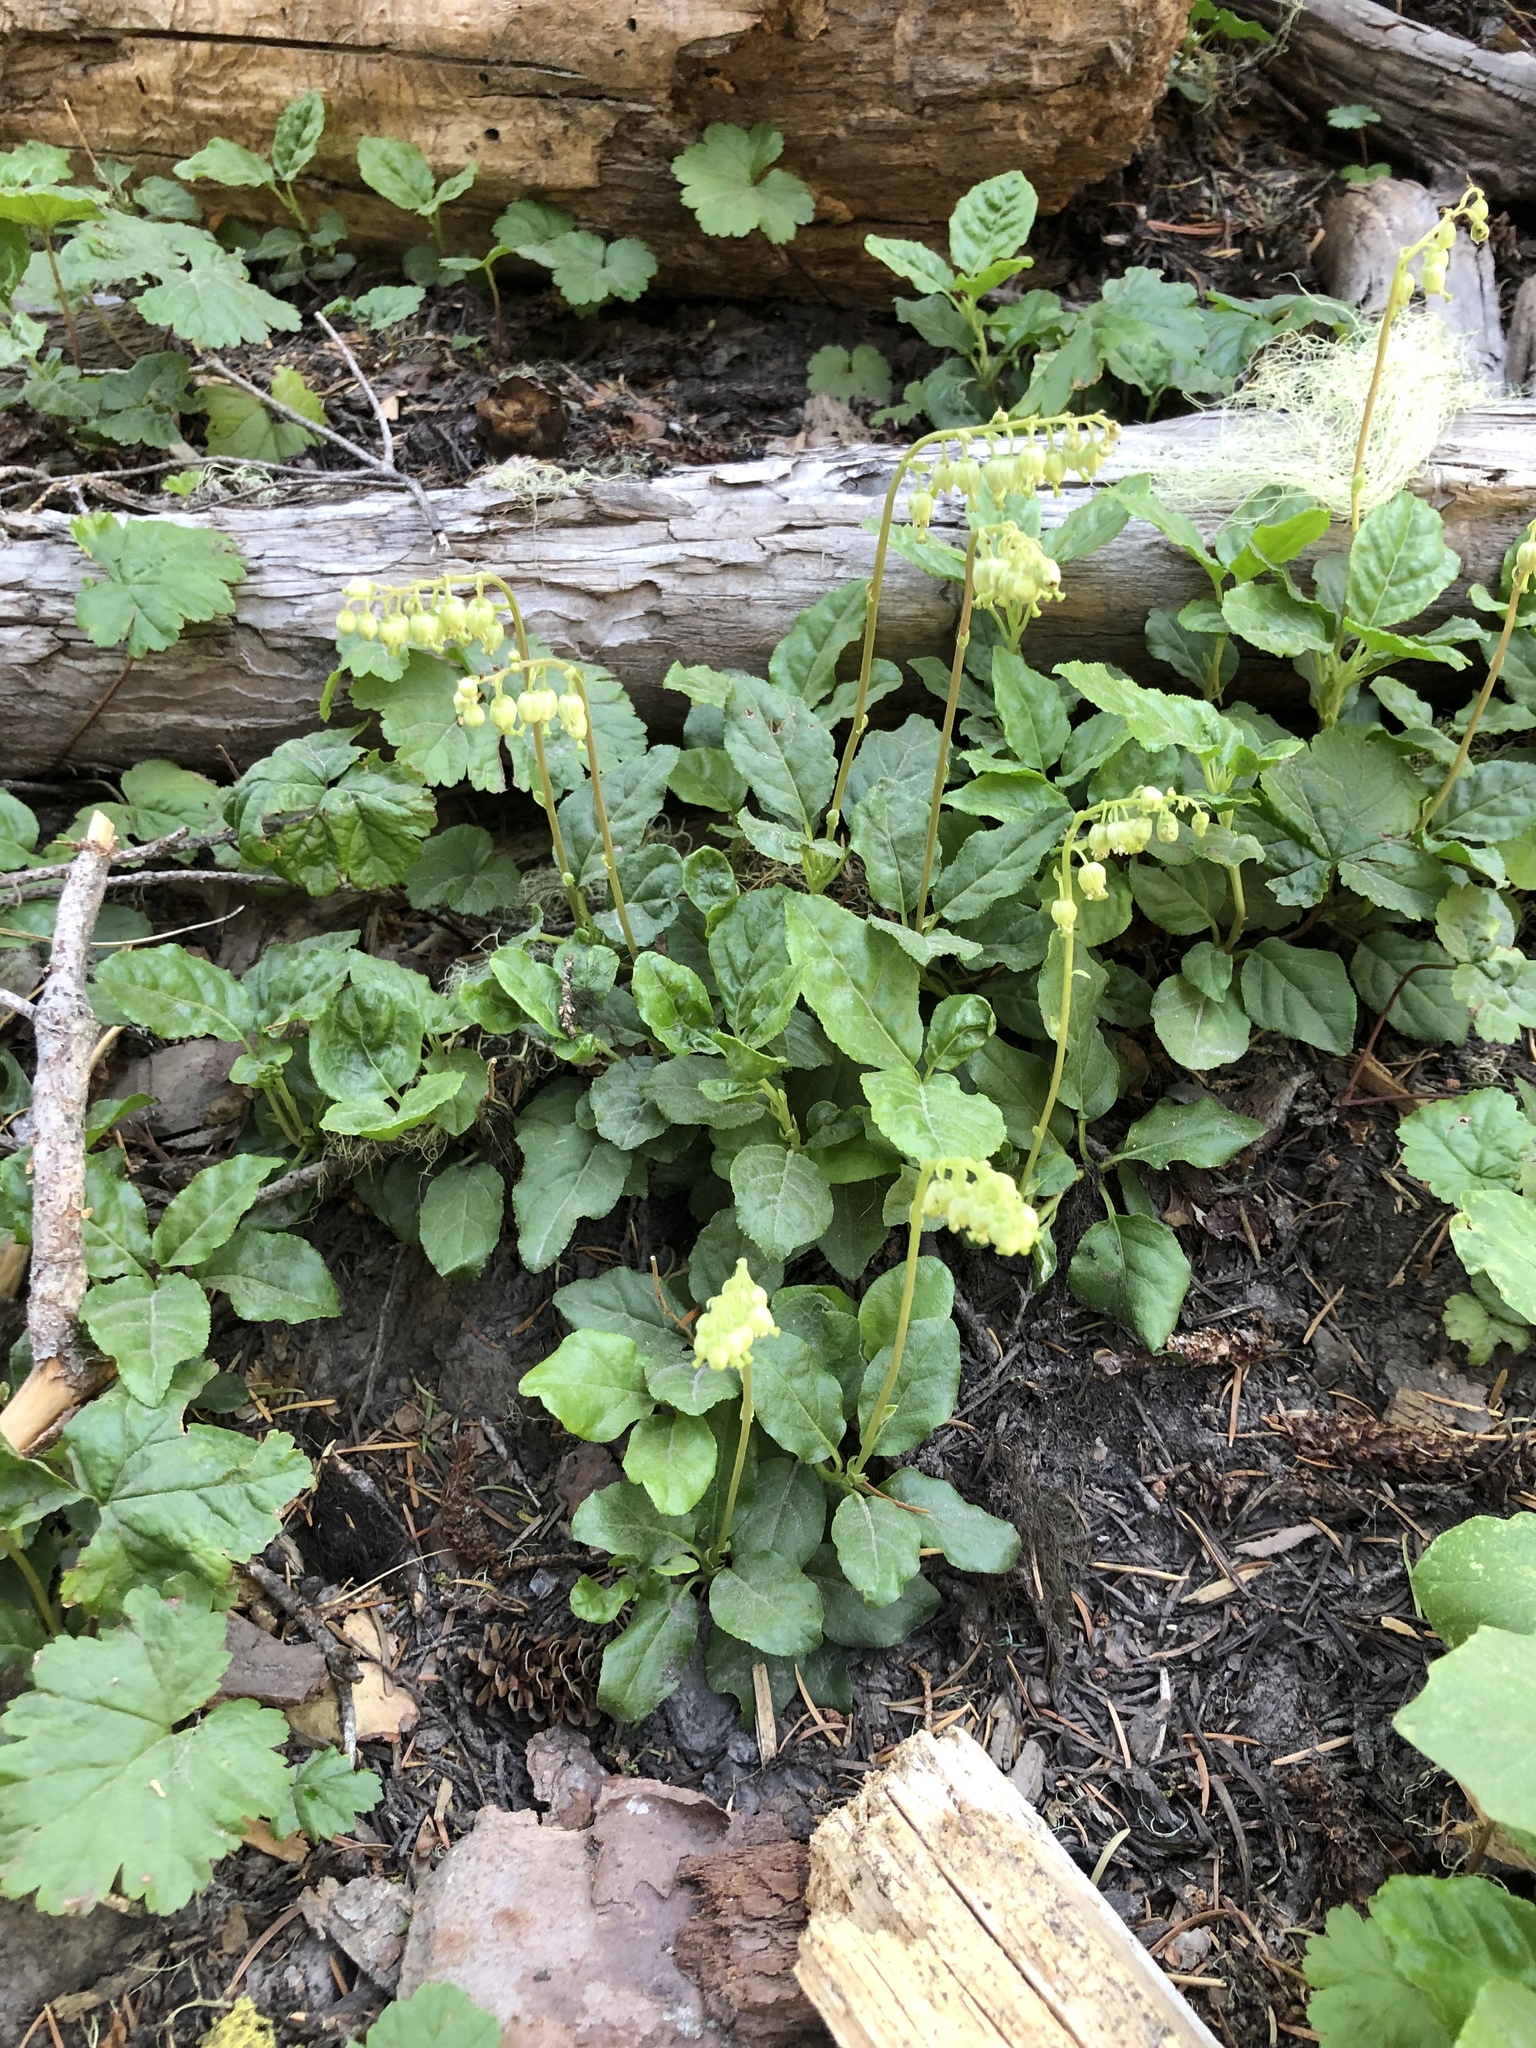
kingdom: Plantae
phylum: Tracheophyta
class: Magnoliopsida
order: Ericales
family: Ericaceae
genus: Orthilia
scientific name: Orthilia secunda
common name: One-sided orthilia
